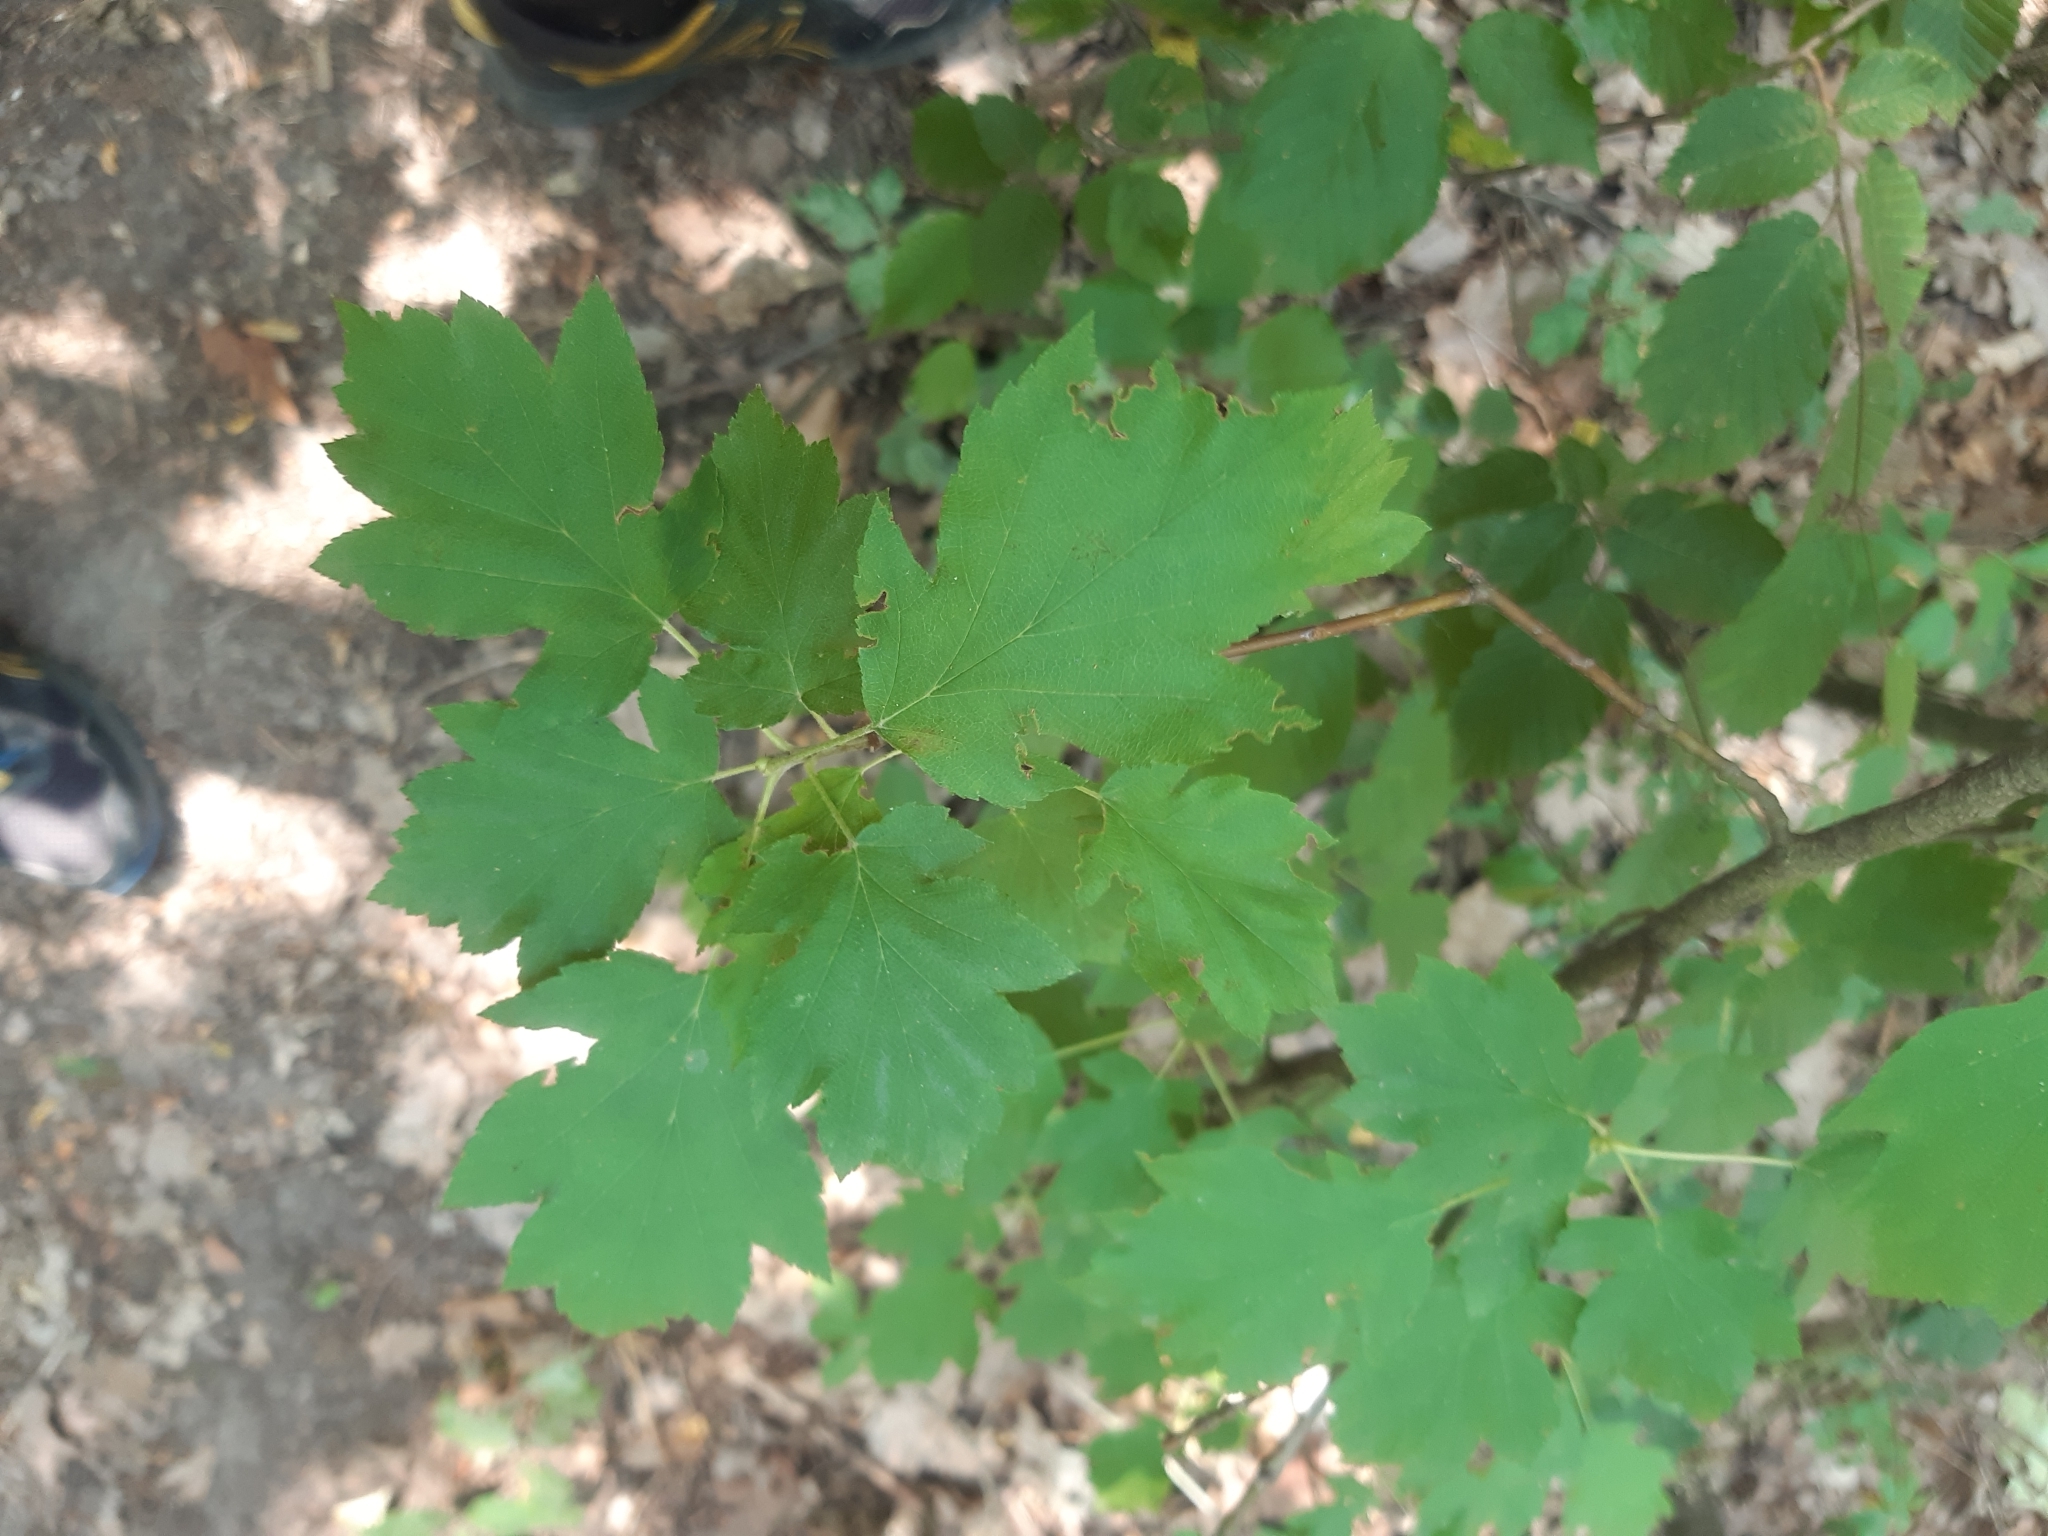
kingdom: Plantae
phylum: Tracheophyta
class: Magnoliopsida
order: Rosales
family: Rosaceae
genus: Torminalis
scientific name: Torminalis glaberrima
